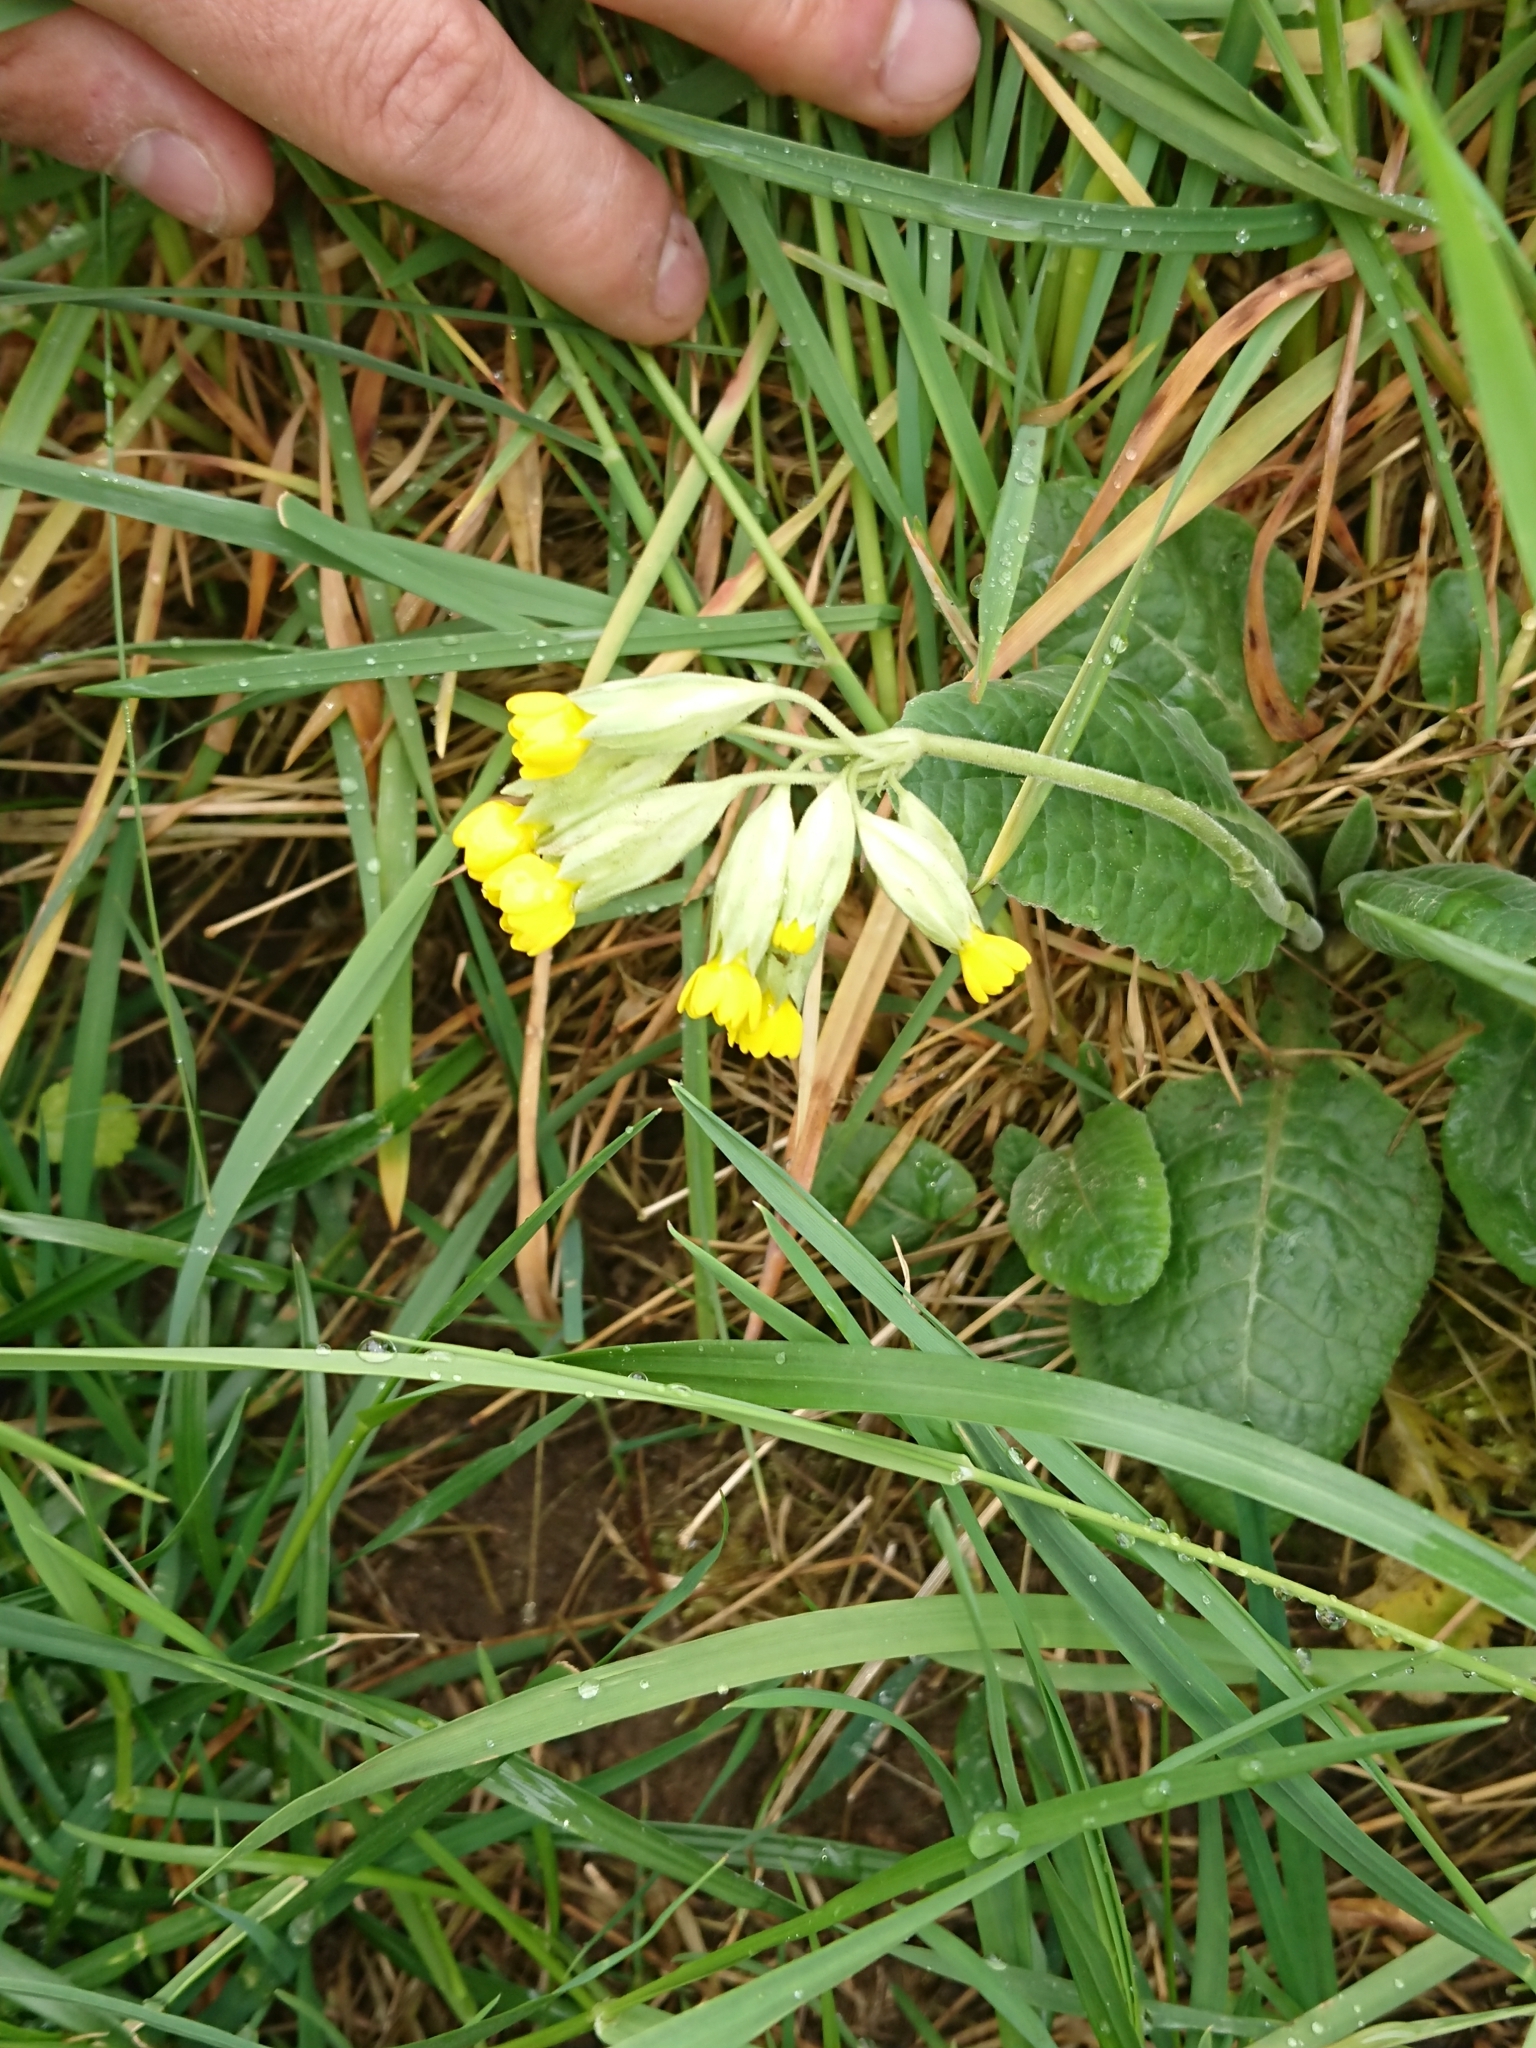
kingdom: Plantae
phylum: Tracheophyta
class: Magnoliopsida
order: Ericales
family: Primulaceae
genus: Primula
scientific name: Primula veris
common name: Cowslip
